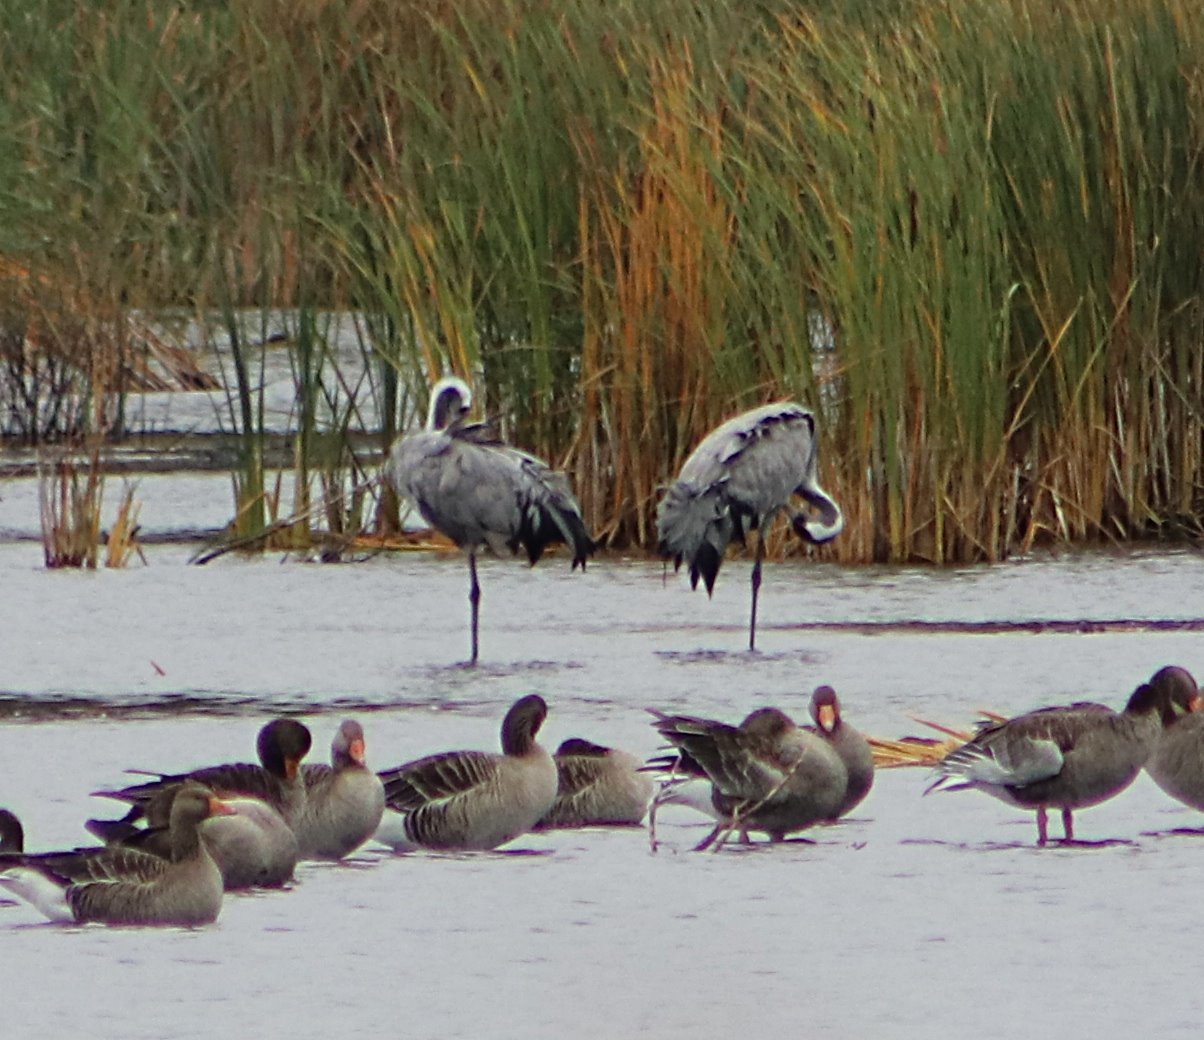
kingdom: Animalia
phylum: Chordata
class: Aves
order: Gruiformes
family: Gruidae
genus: Grus
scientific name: Grus grus
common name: Common crane
